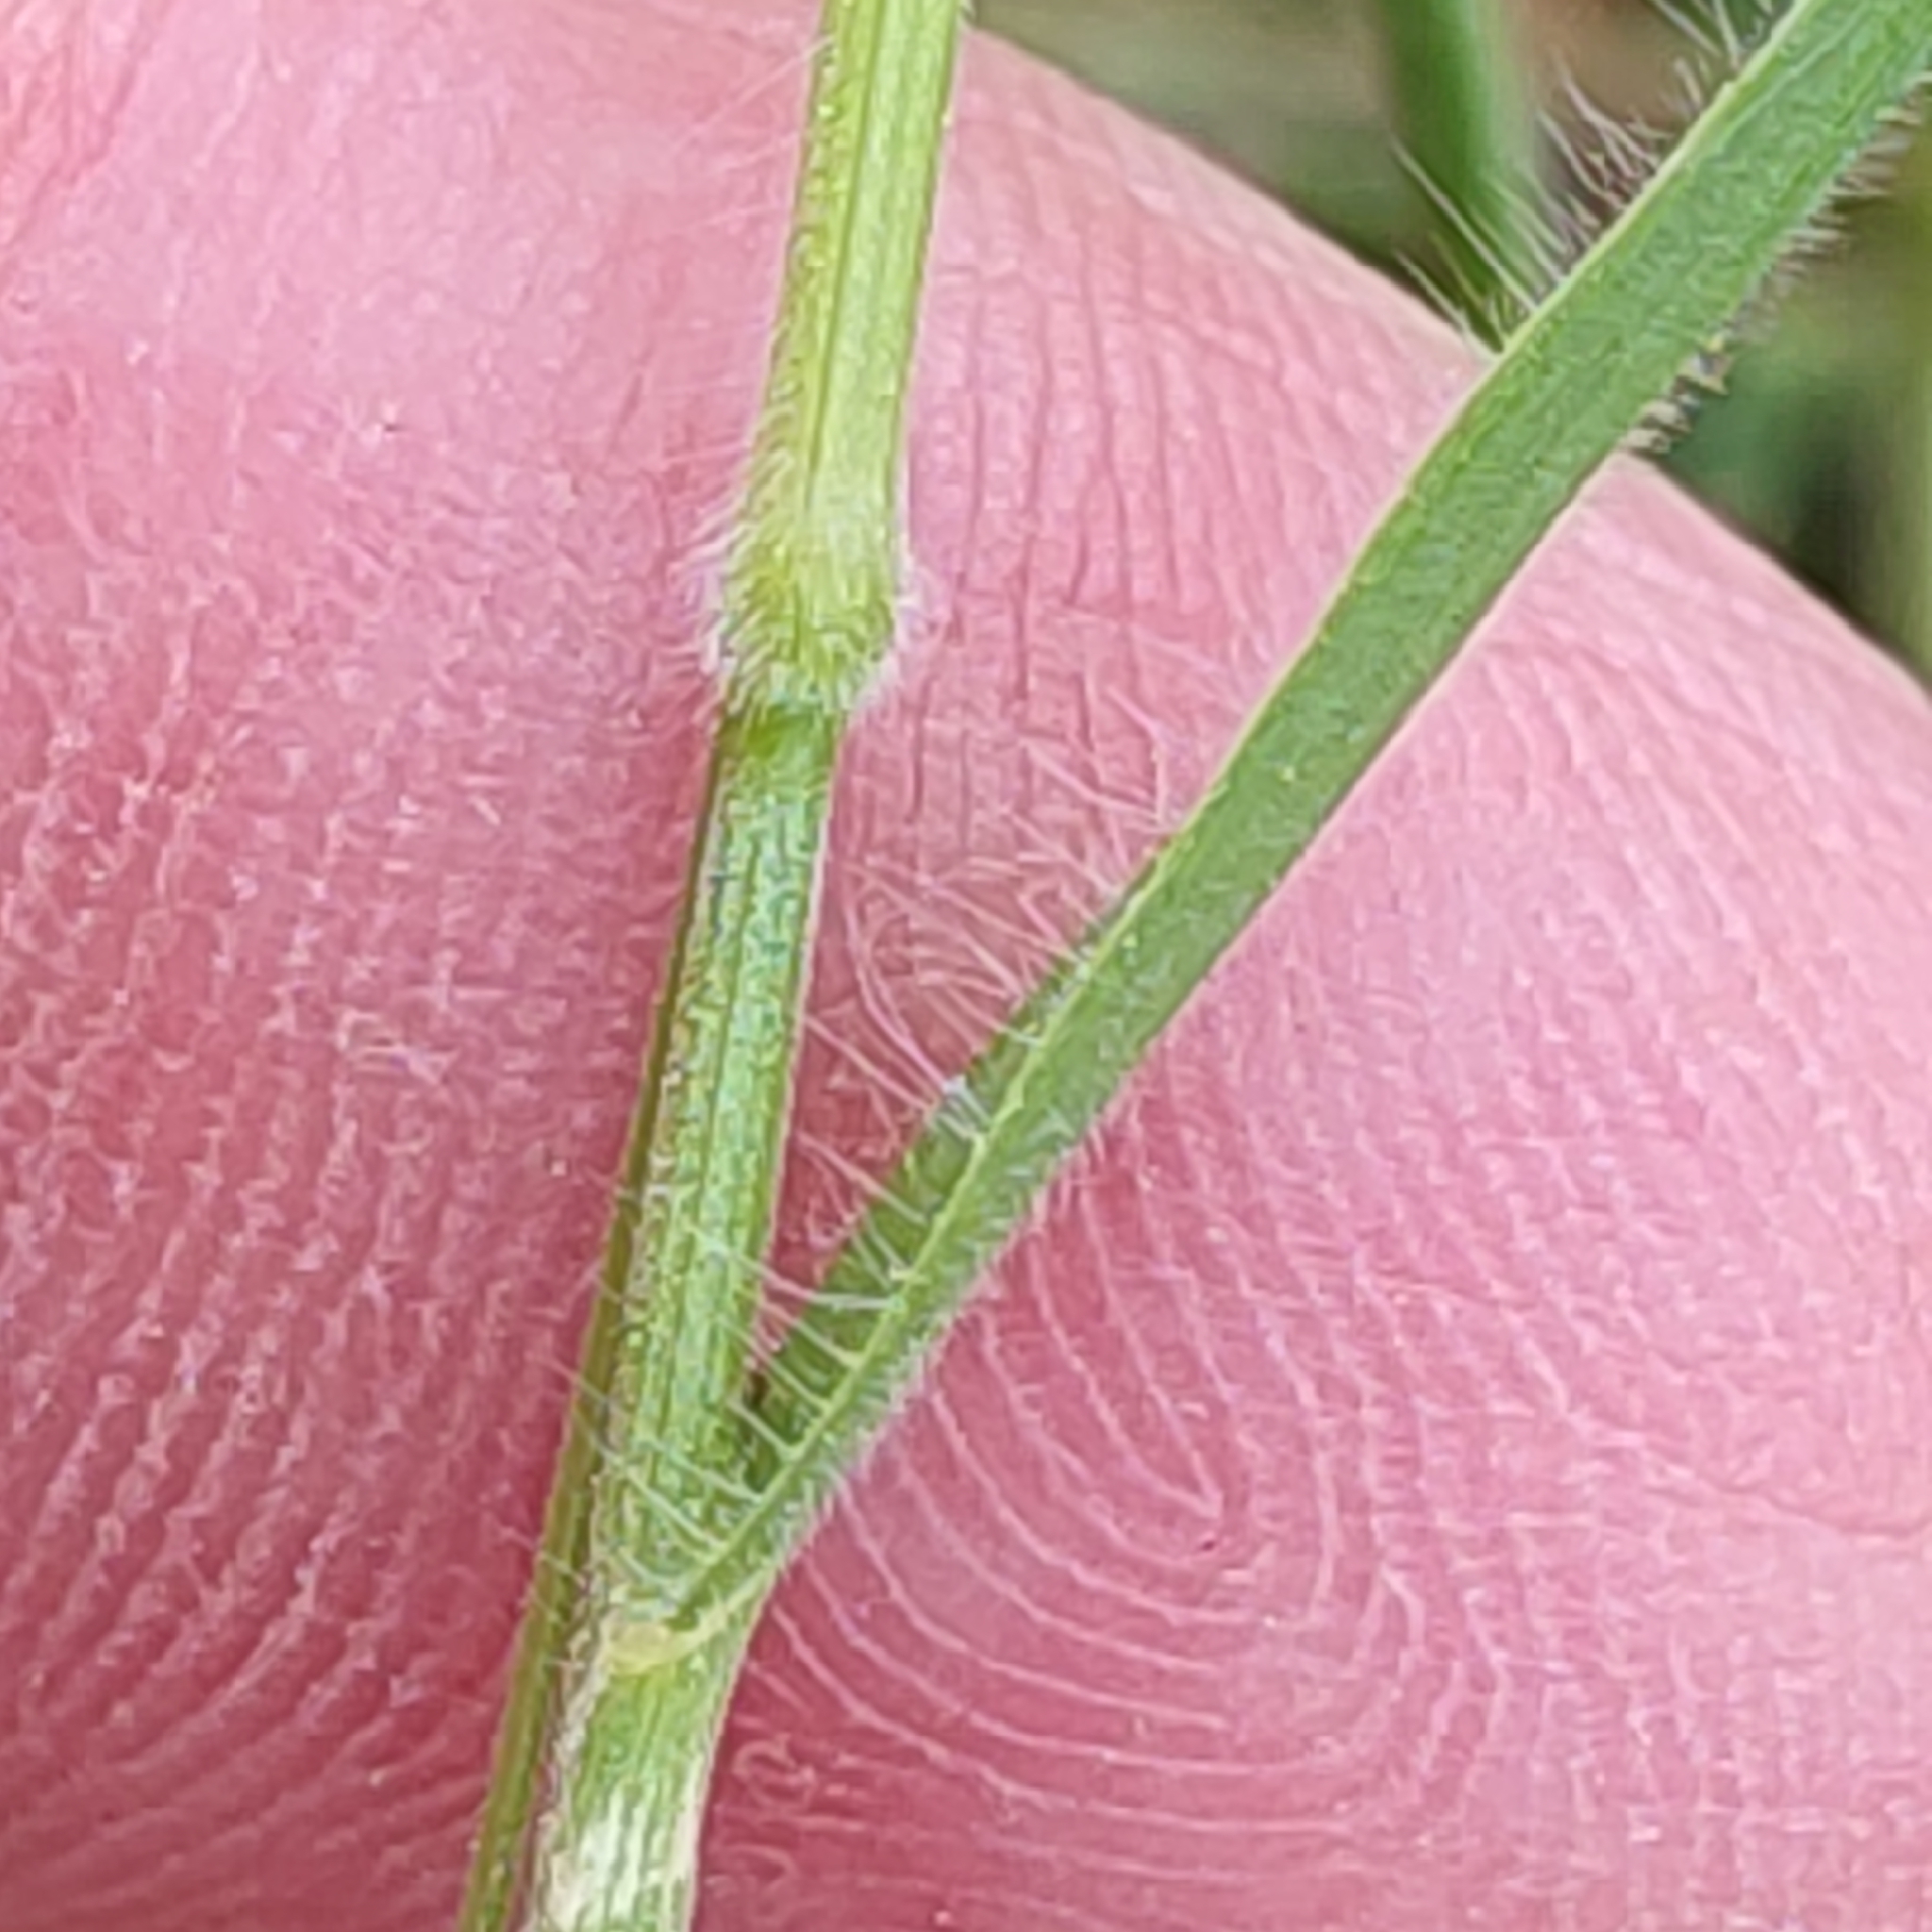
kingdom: Plantae
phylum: Tracheophyta
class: Liliopsida
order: Poales
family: Poaceae
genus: Bromus
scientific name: Bromus hordeaceus
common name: Soft brome
